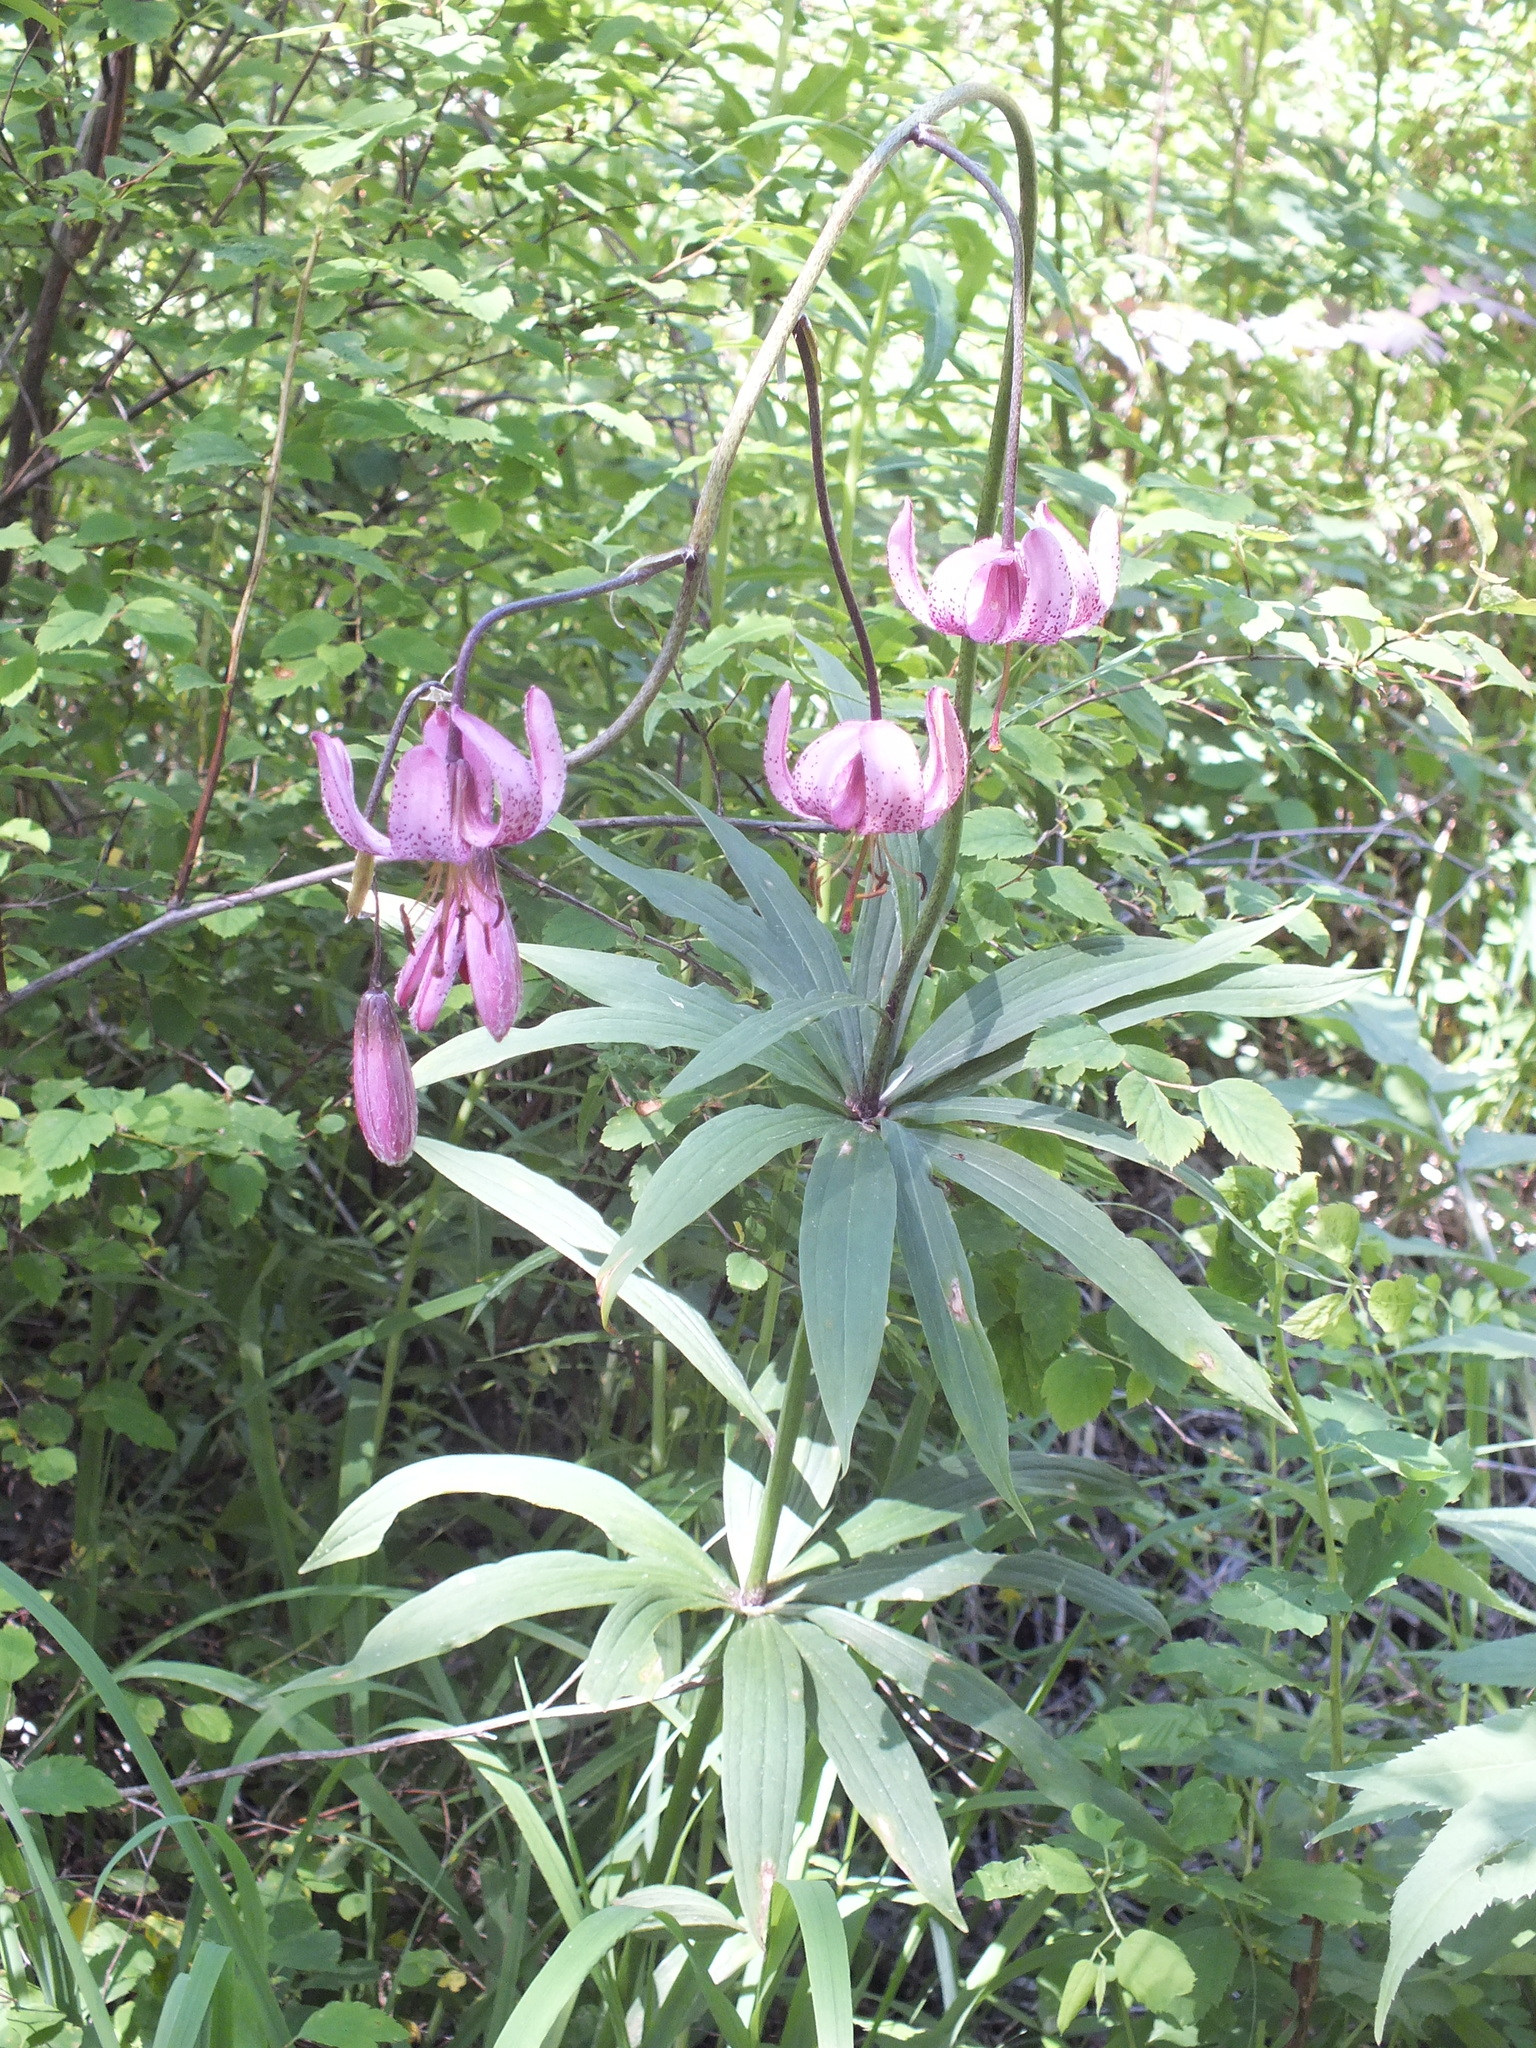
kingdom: Plantae
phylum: Tracheophyta
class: Liliopsida
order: Liliales
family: Liliaceae
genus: Lilium
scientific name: Lilium martagon
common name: Martagon lily
